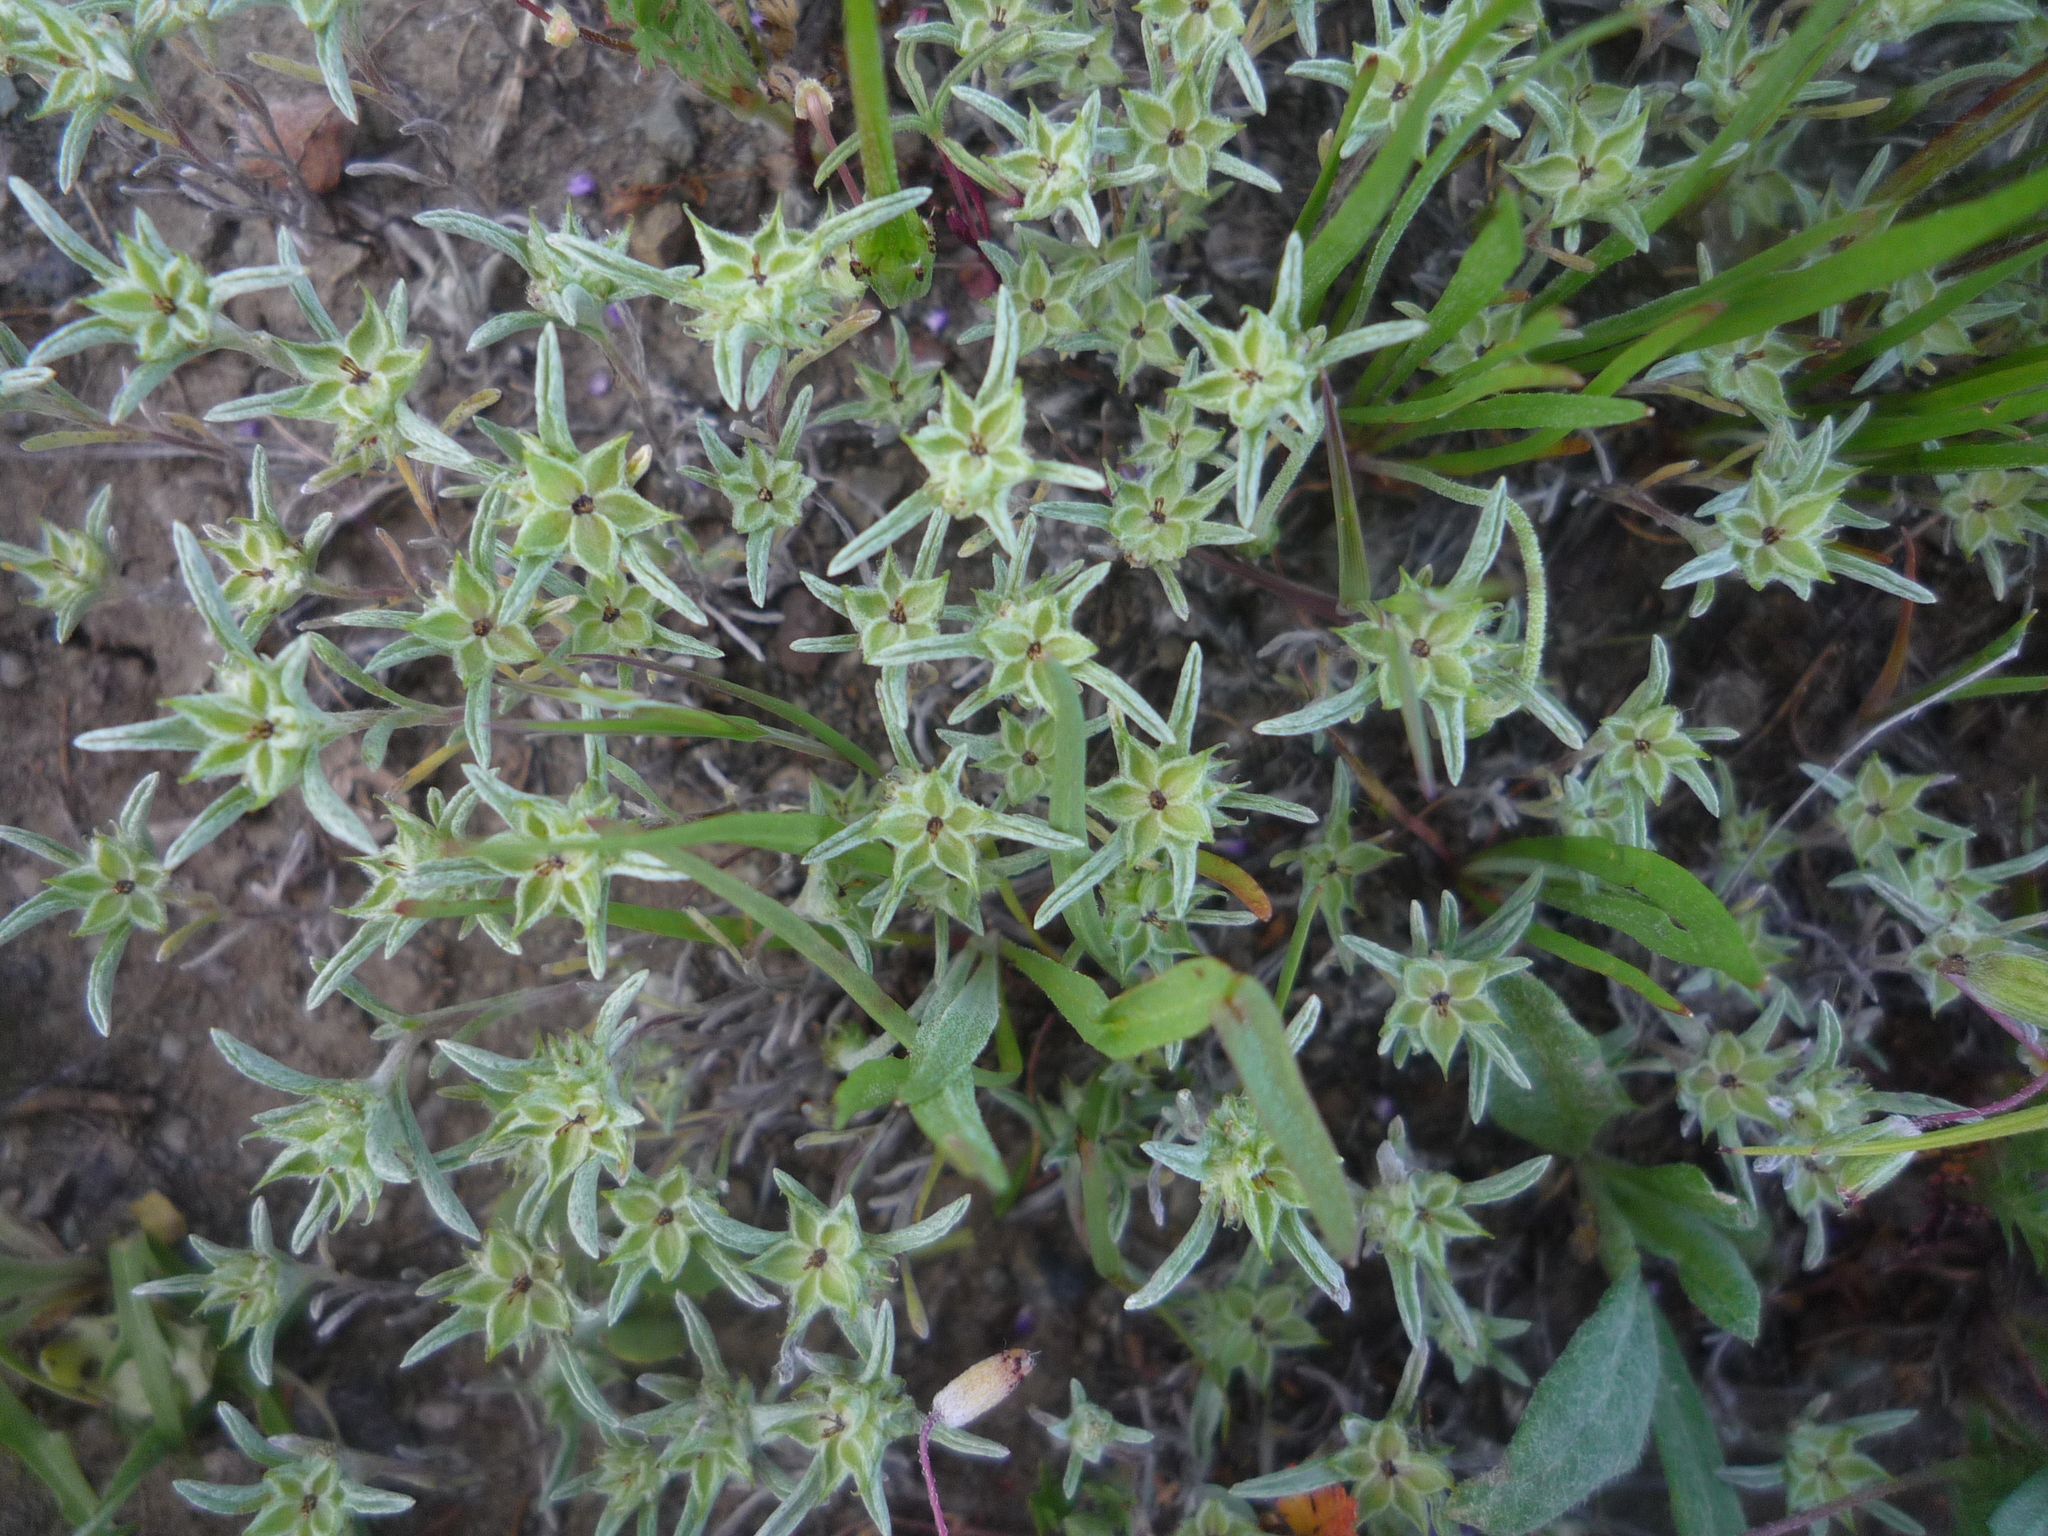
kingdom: Plantae
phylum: Tracheophyta
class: Magnoliopsida
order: Asterales
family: Asteraceae
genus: Ancistrocarphus
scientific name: Ancistrocarphus filagineus
